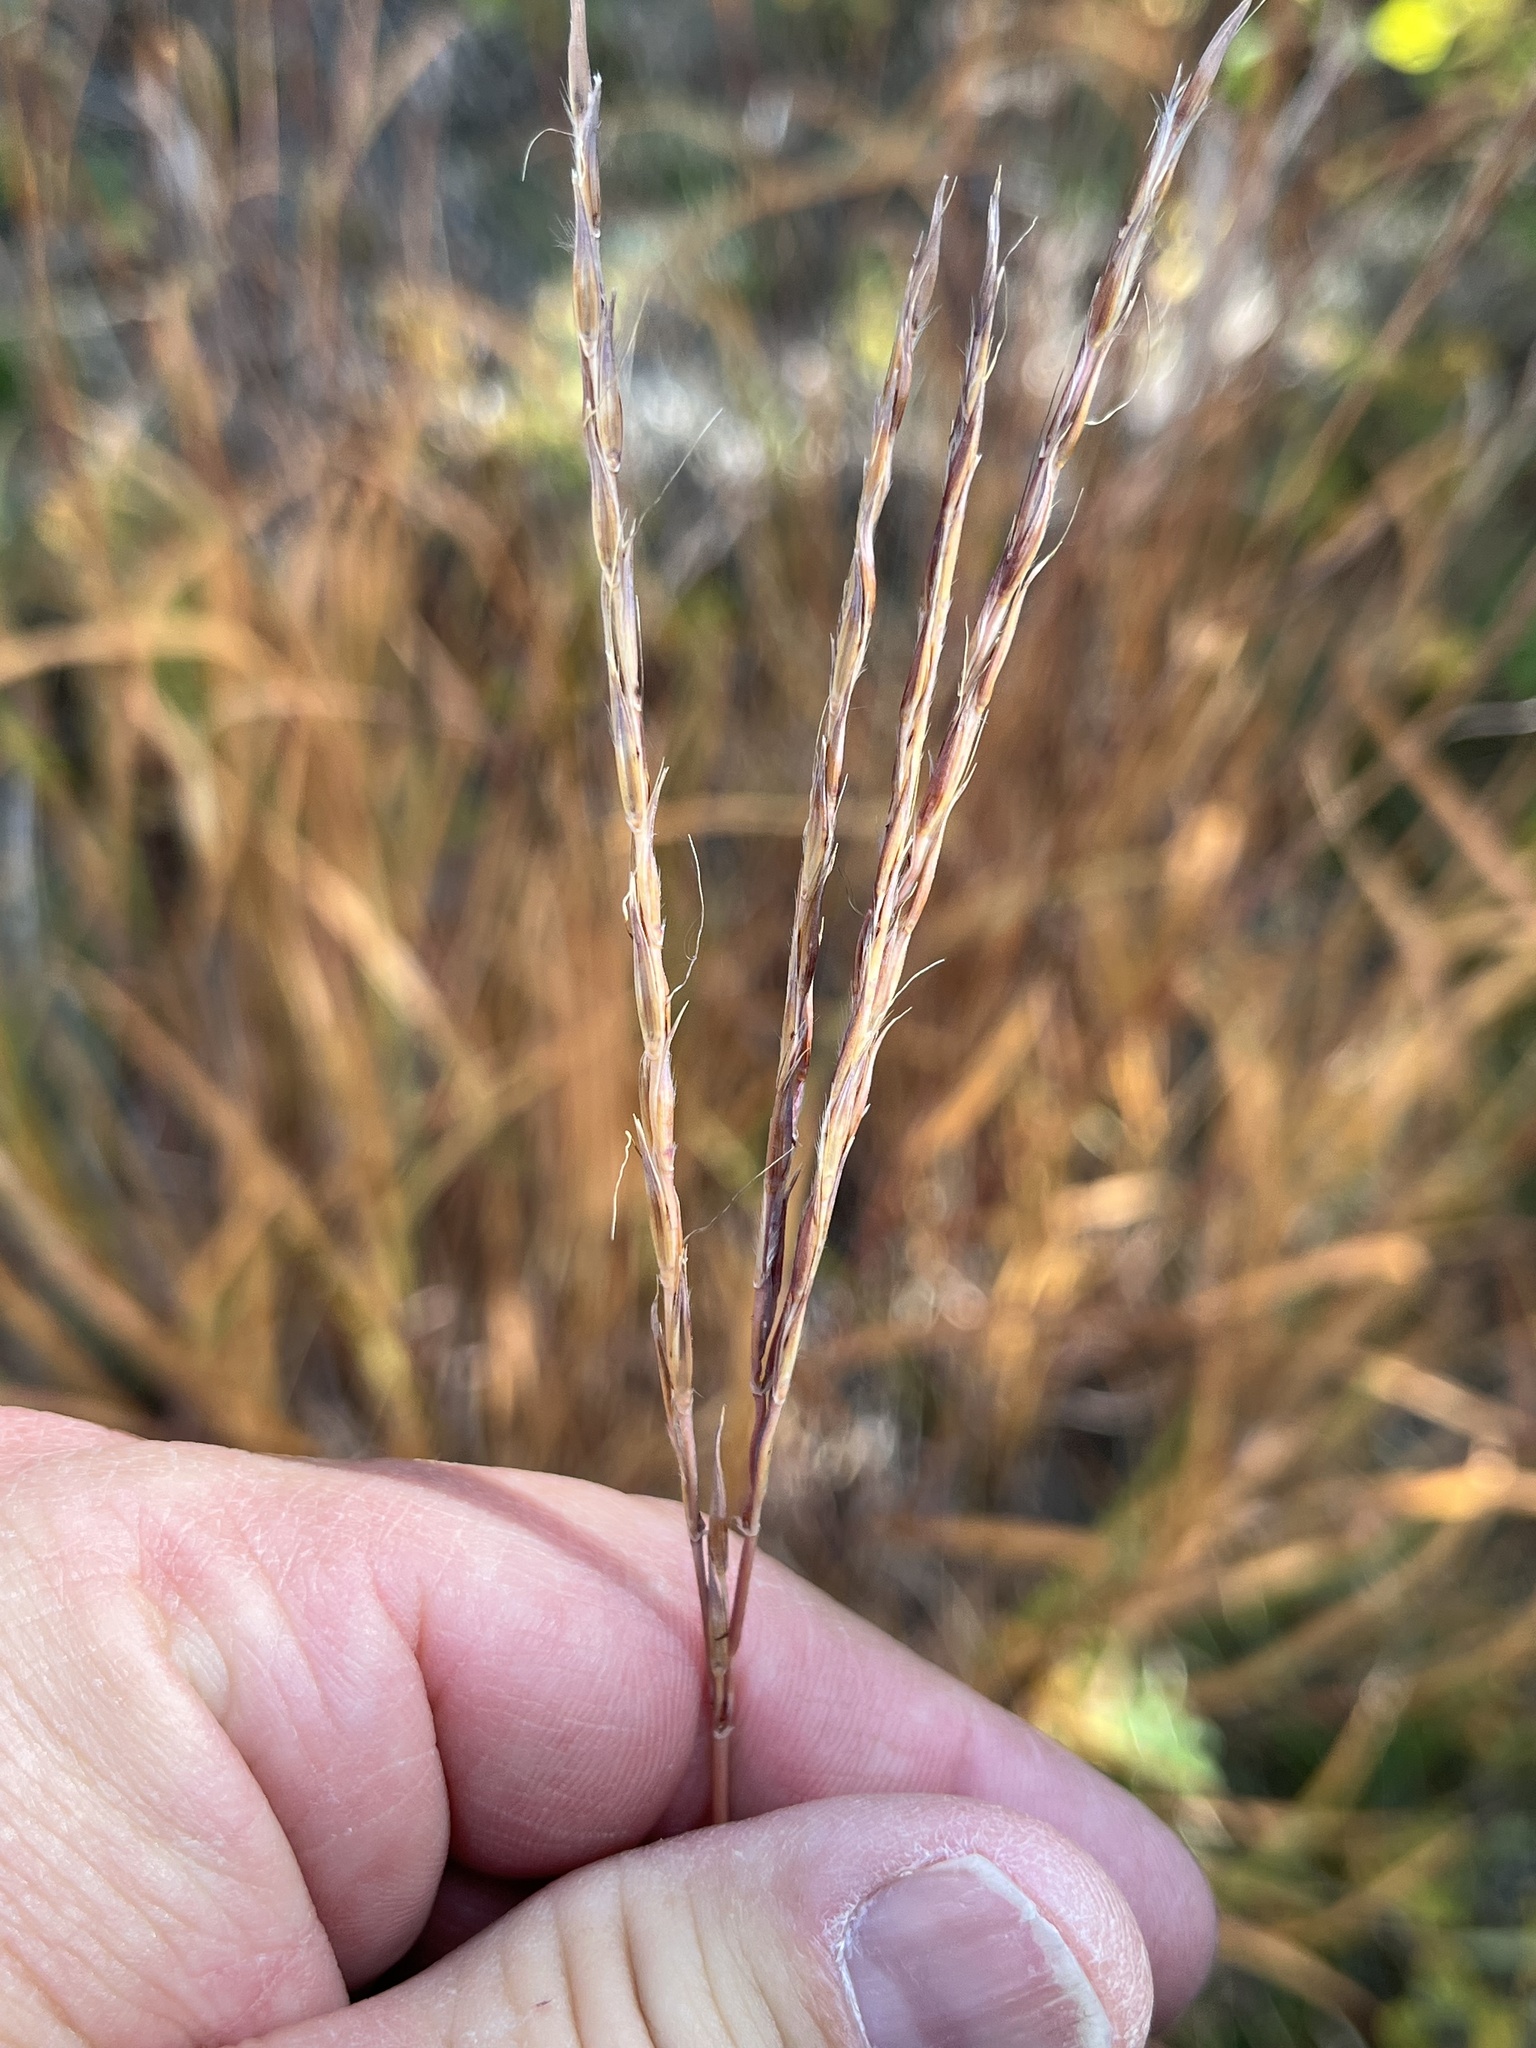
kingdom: Plantae
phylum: Tracheophyta
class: Liliopsida
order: Poales
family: Poaceae
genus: Andropogon
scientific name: Andropogon gerardi
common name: Big bluestem
